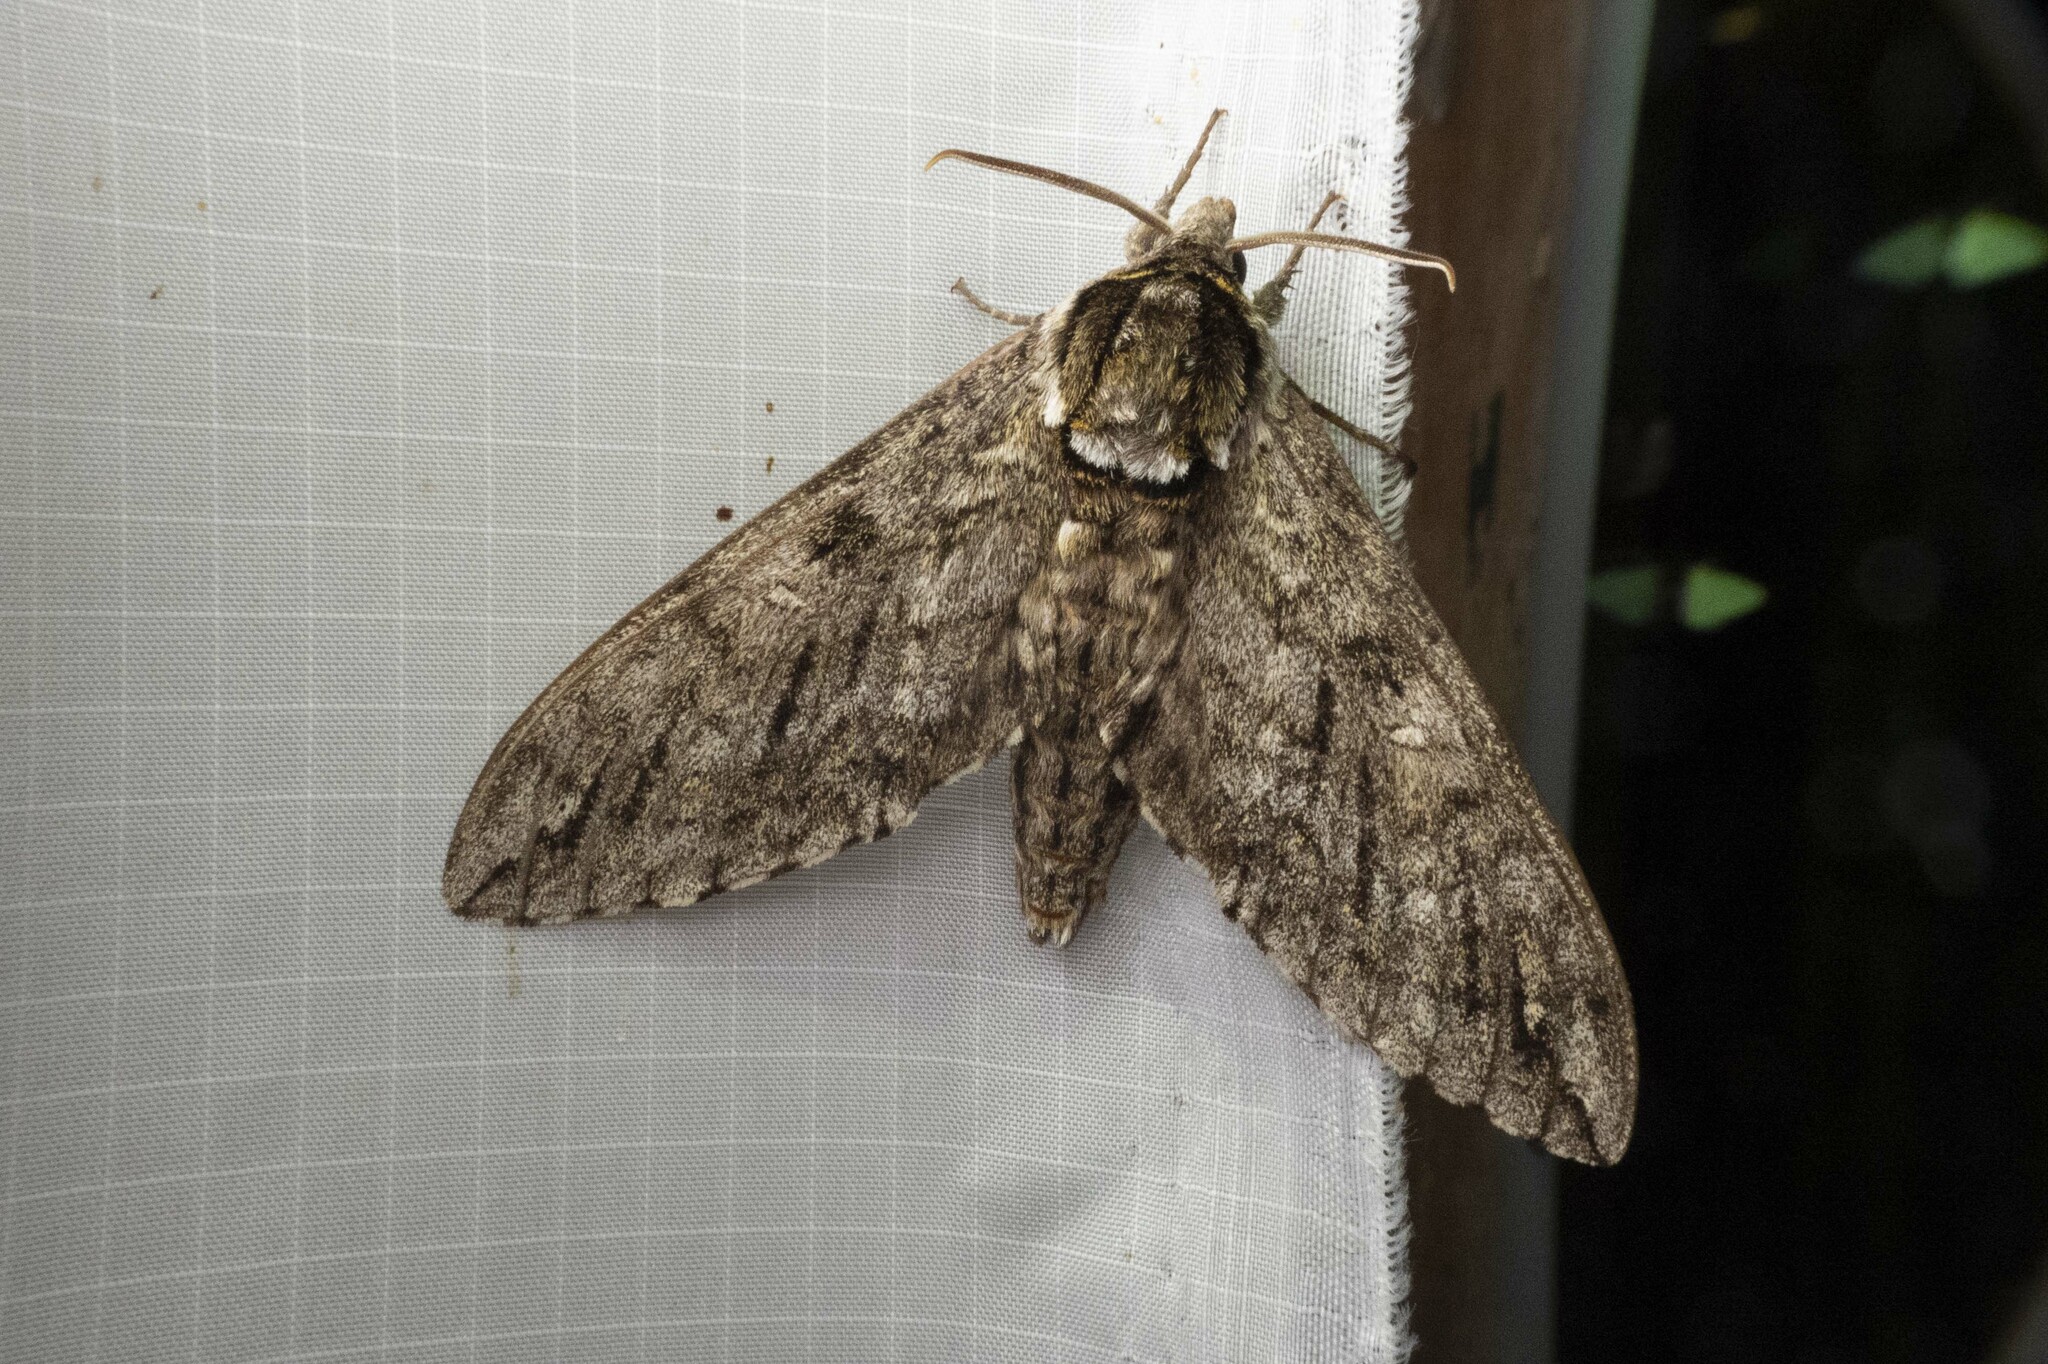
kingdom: Animalia
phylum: Arthropoda
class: Insecta
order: Lepidoptera
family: Sphingidae
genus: Ceratomia
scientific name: Ceratomia undulosa
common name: Waved sphinx
